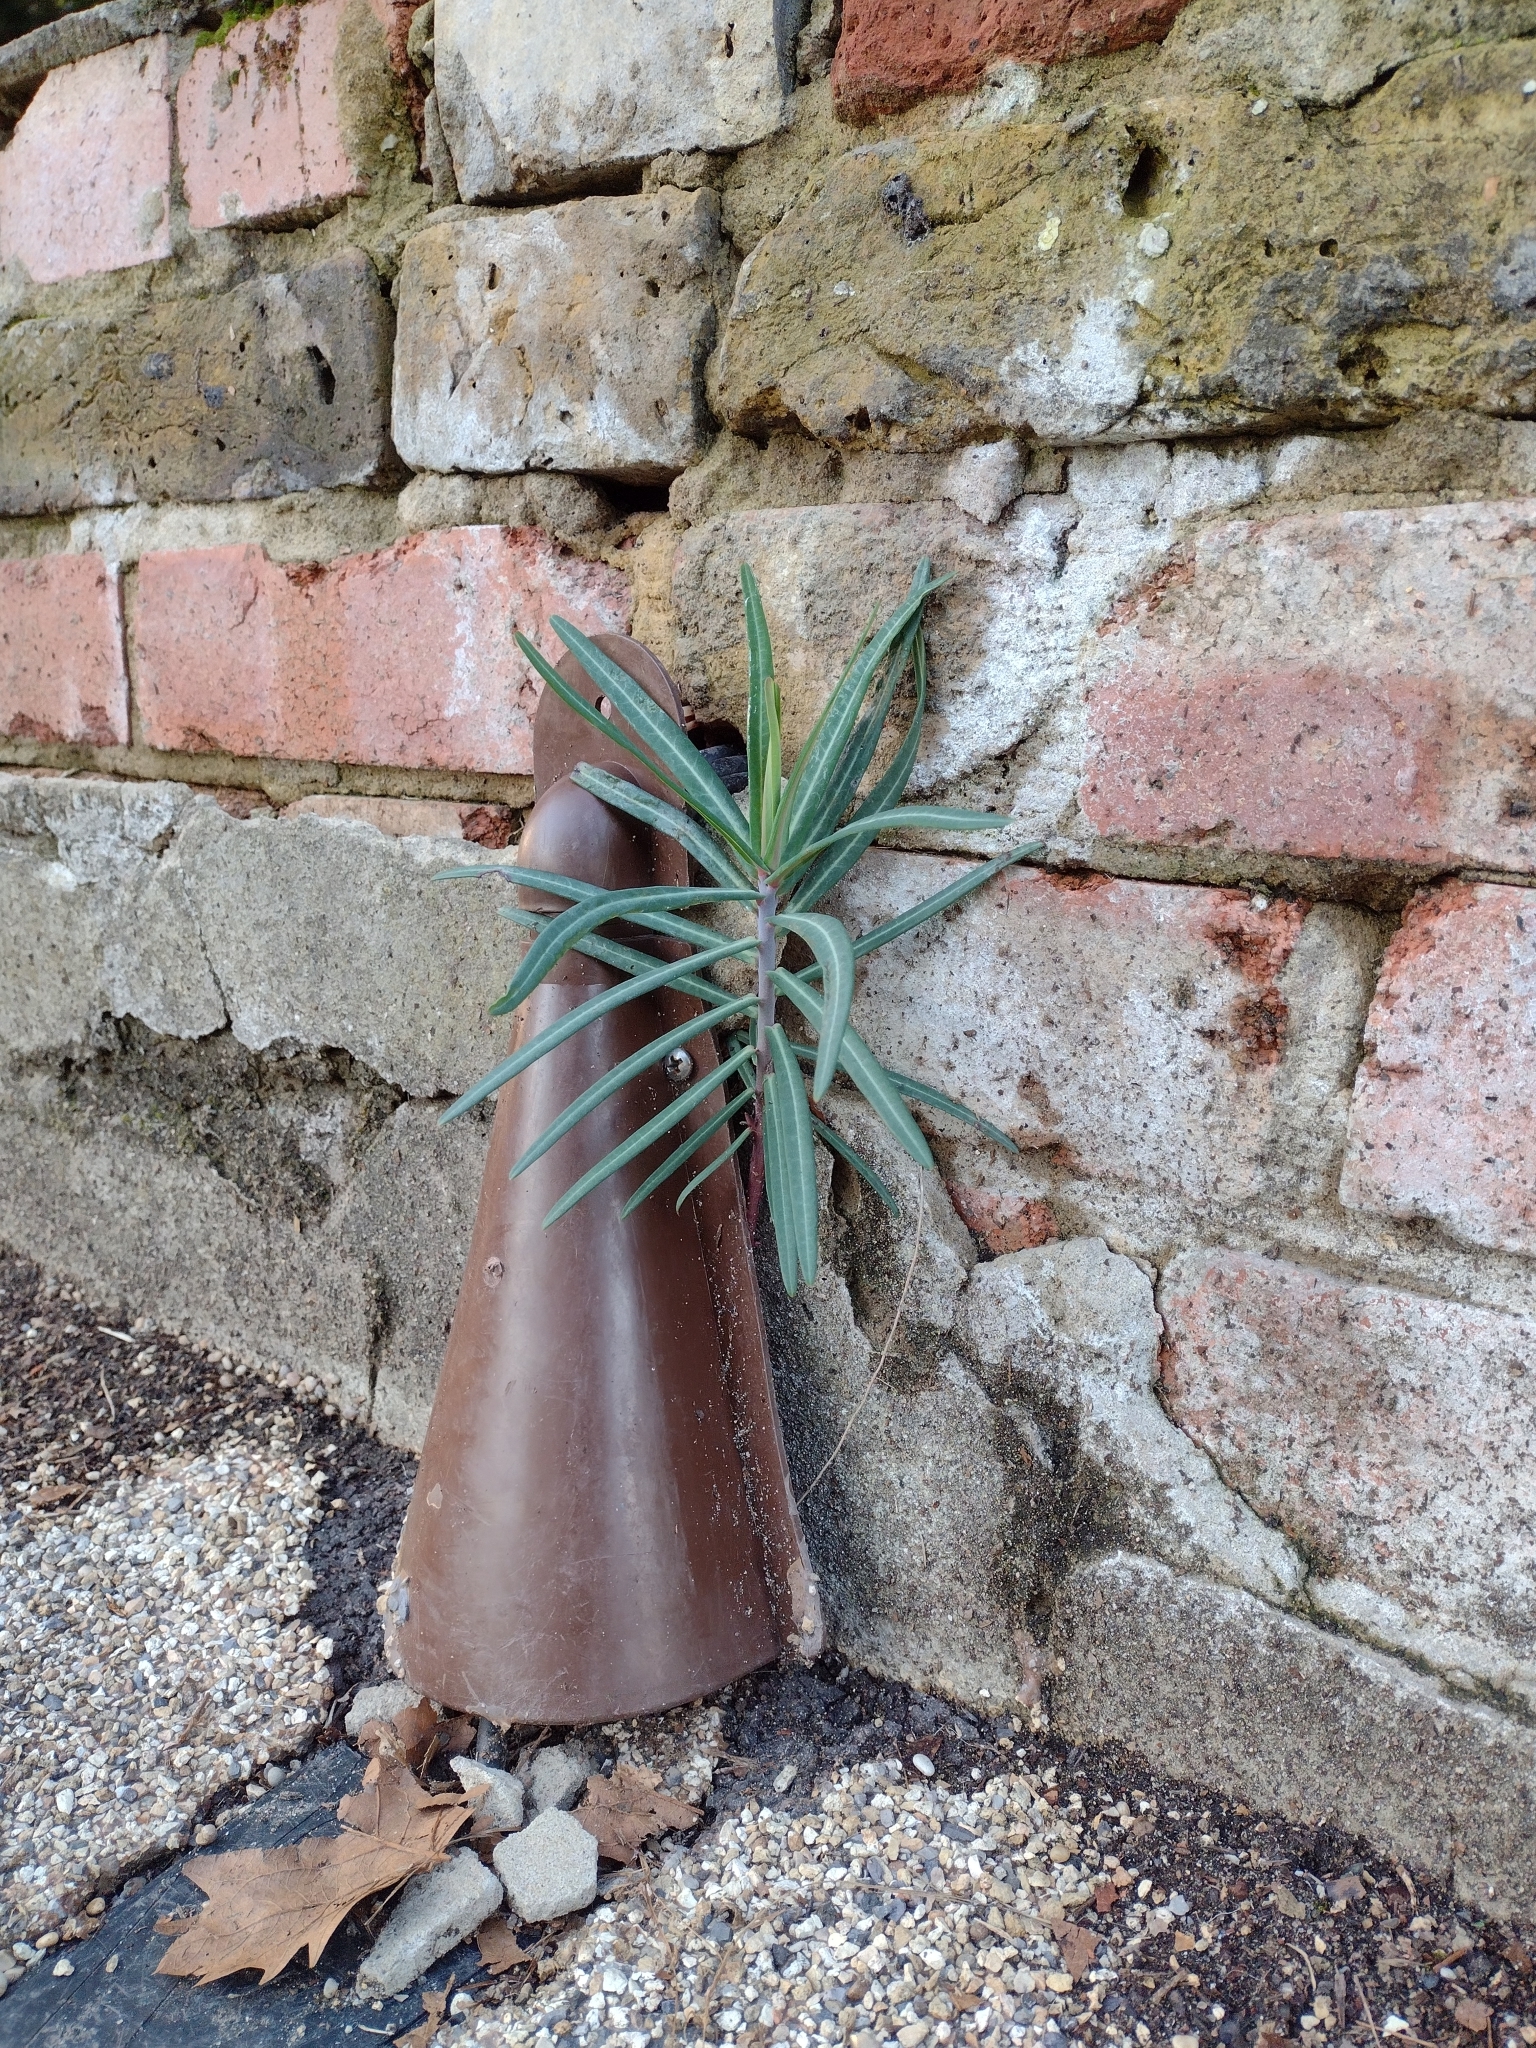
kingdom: Plantae
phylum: Tracheophyta
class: Magnoliopsida
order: Malpighiales
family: Euphorbiaceae
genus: Euphorbia
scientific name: Euphorbia lathyris
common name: Caper spurge
